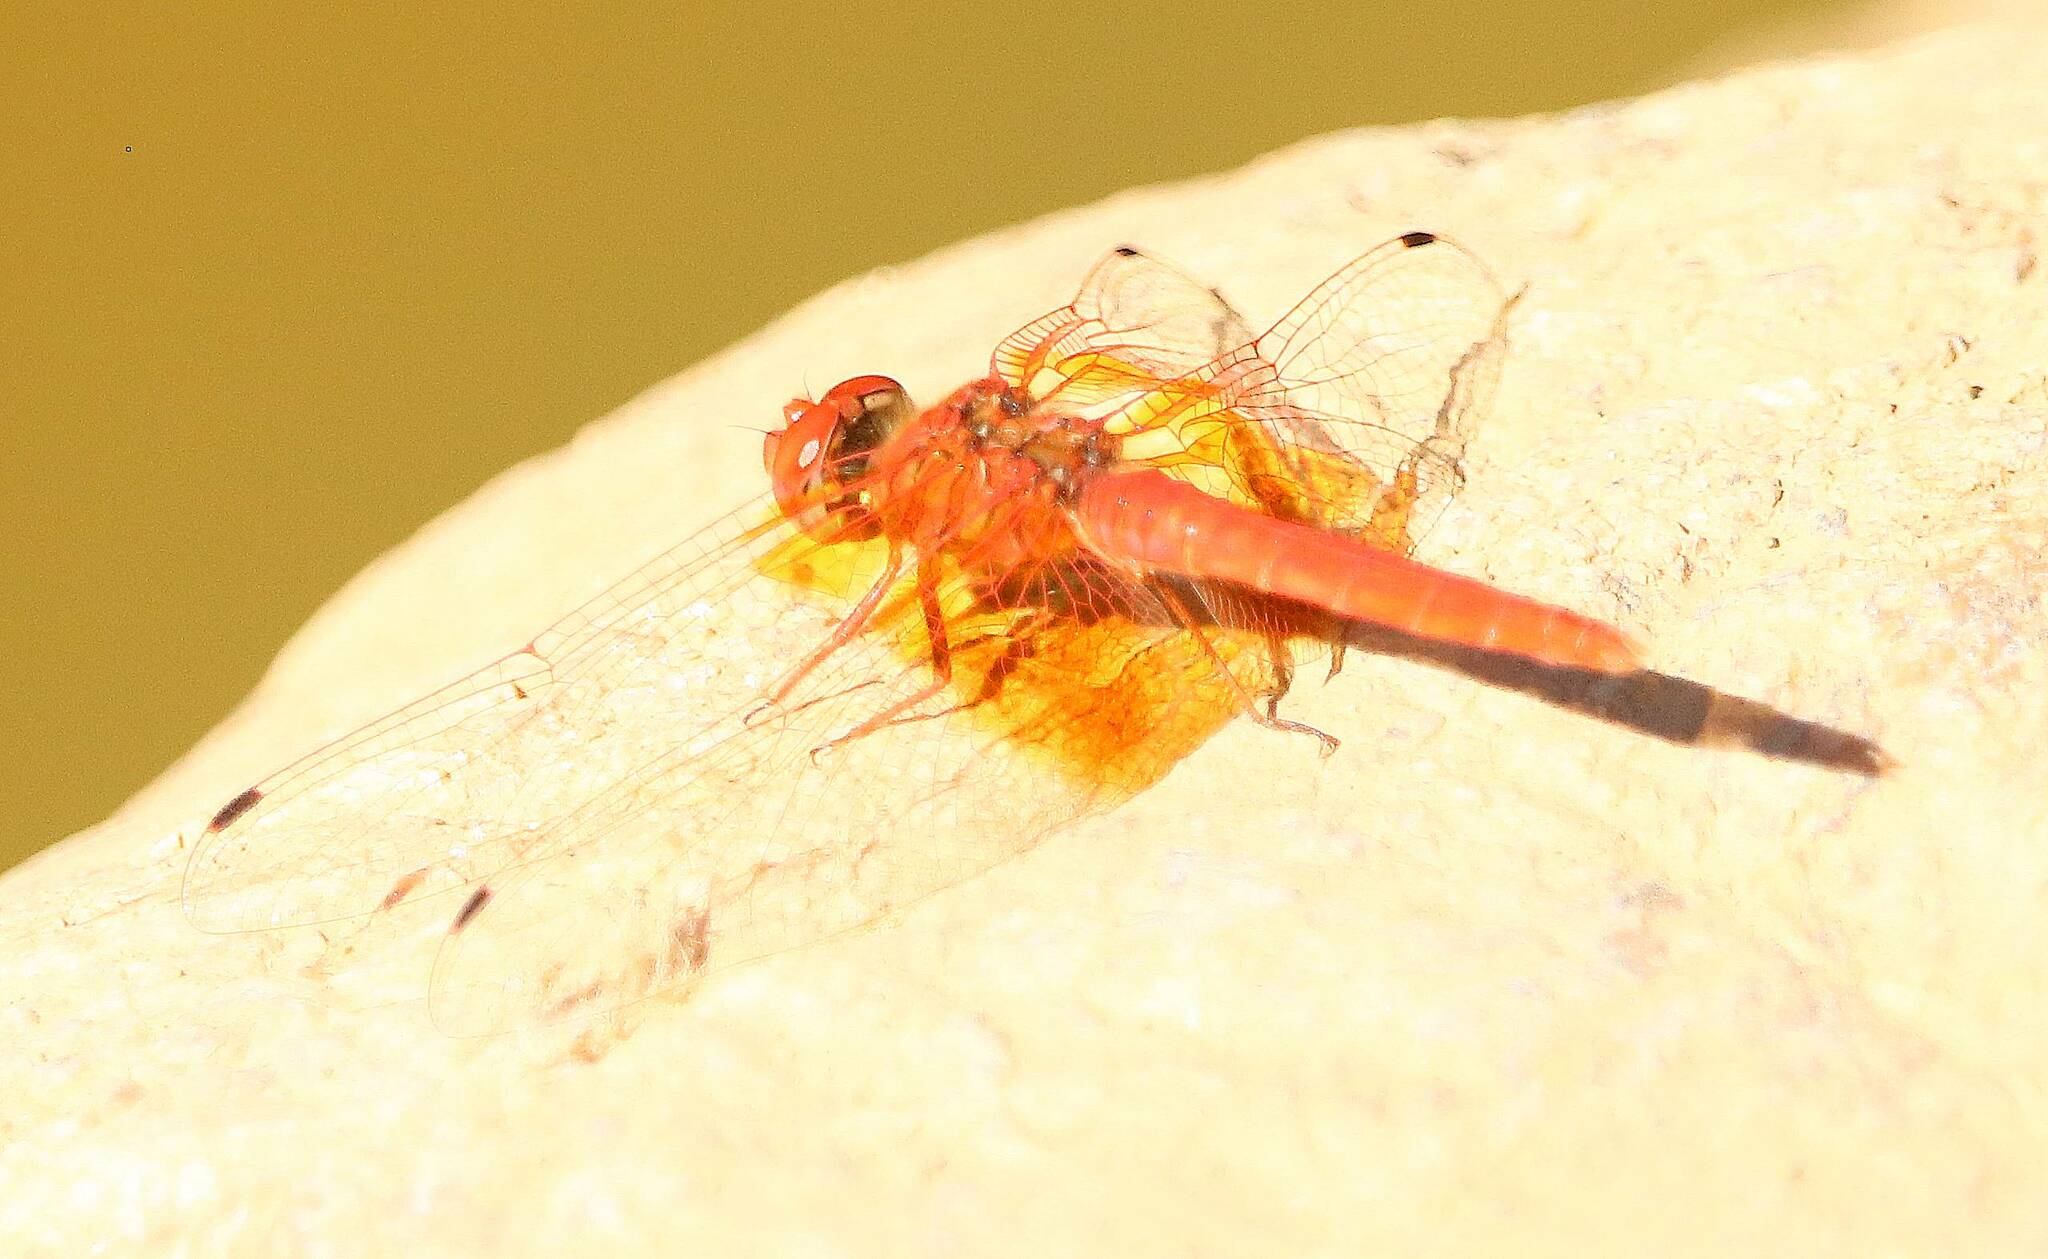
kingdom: Animalia
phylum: Arthropoda
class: Insecta
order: Odonata
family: Libellulidae
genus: Trithemis
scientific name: Trithemis kirbyi
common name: Kirby's dropwing
